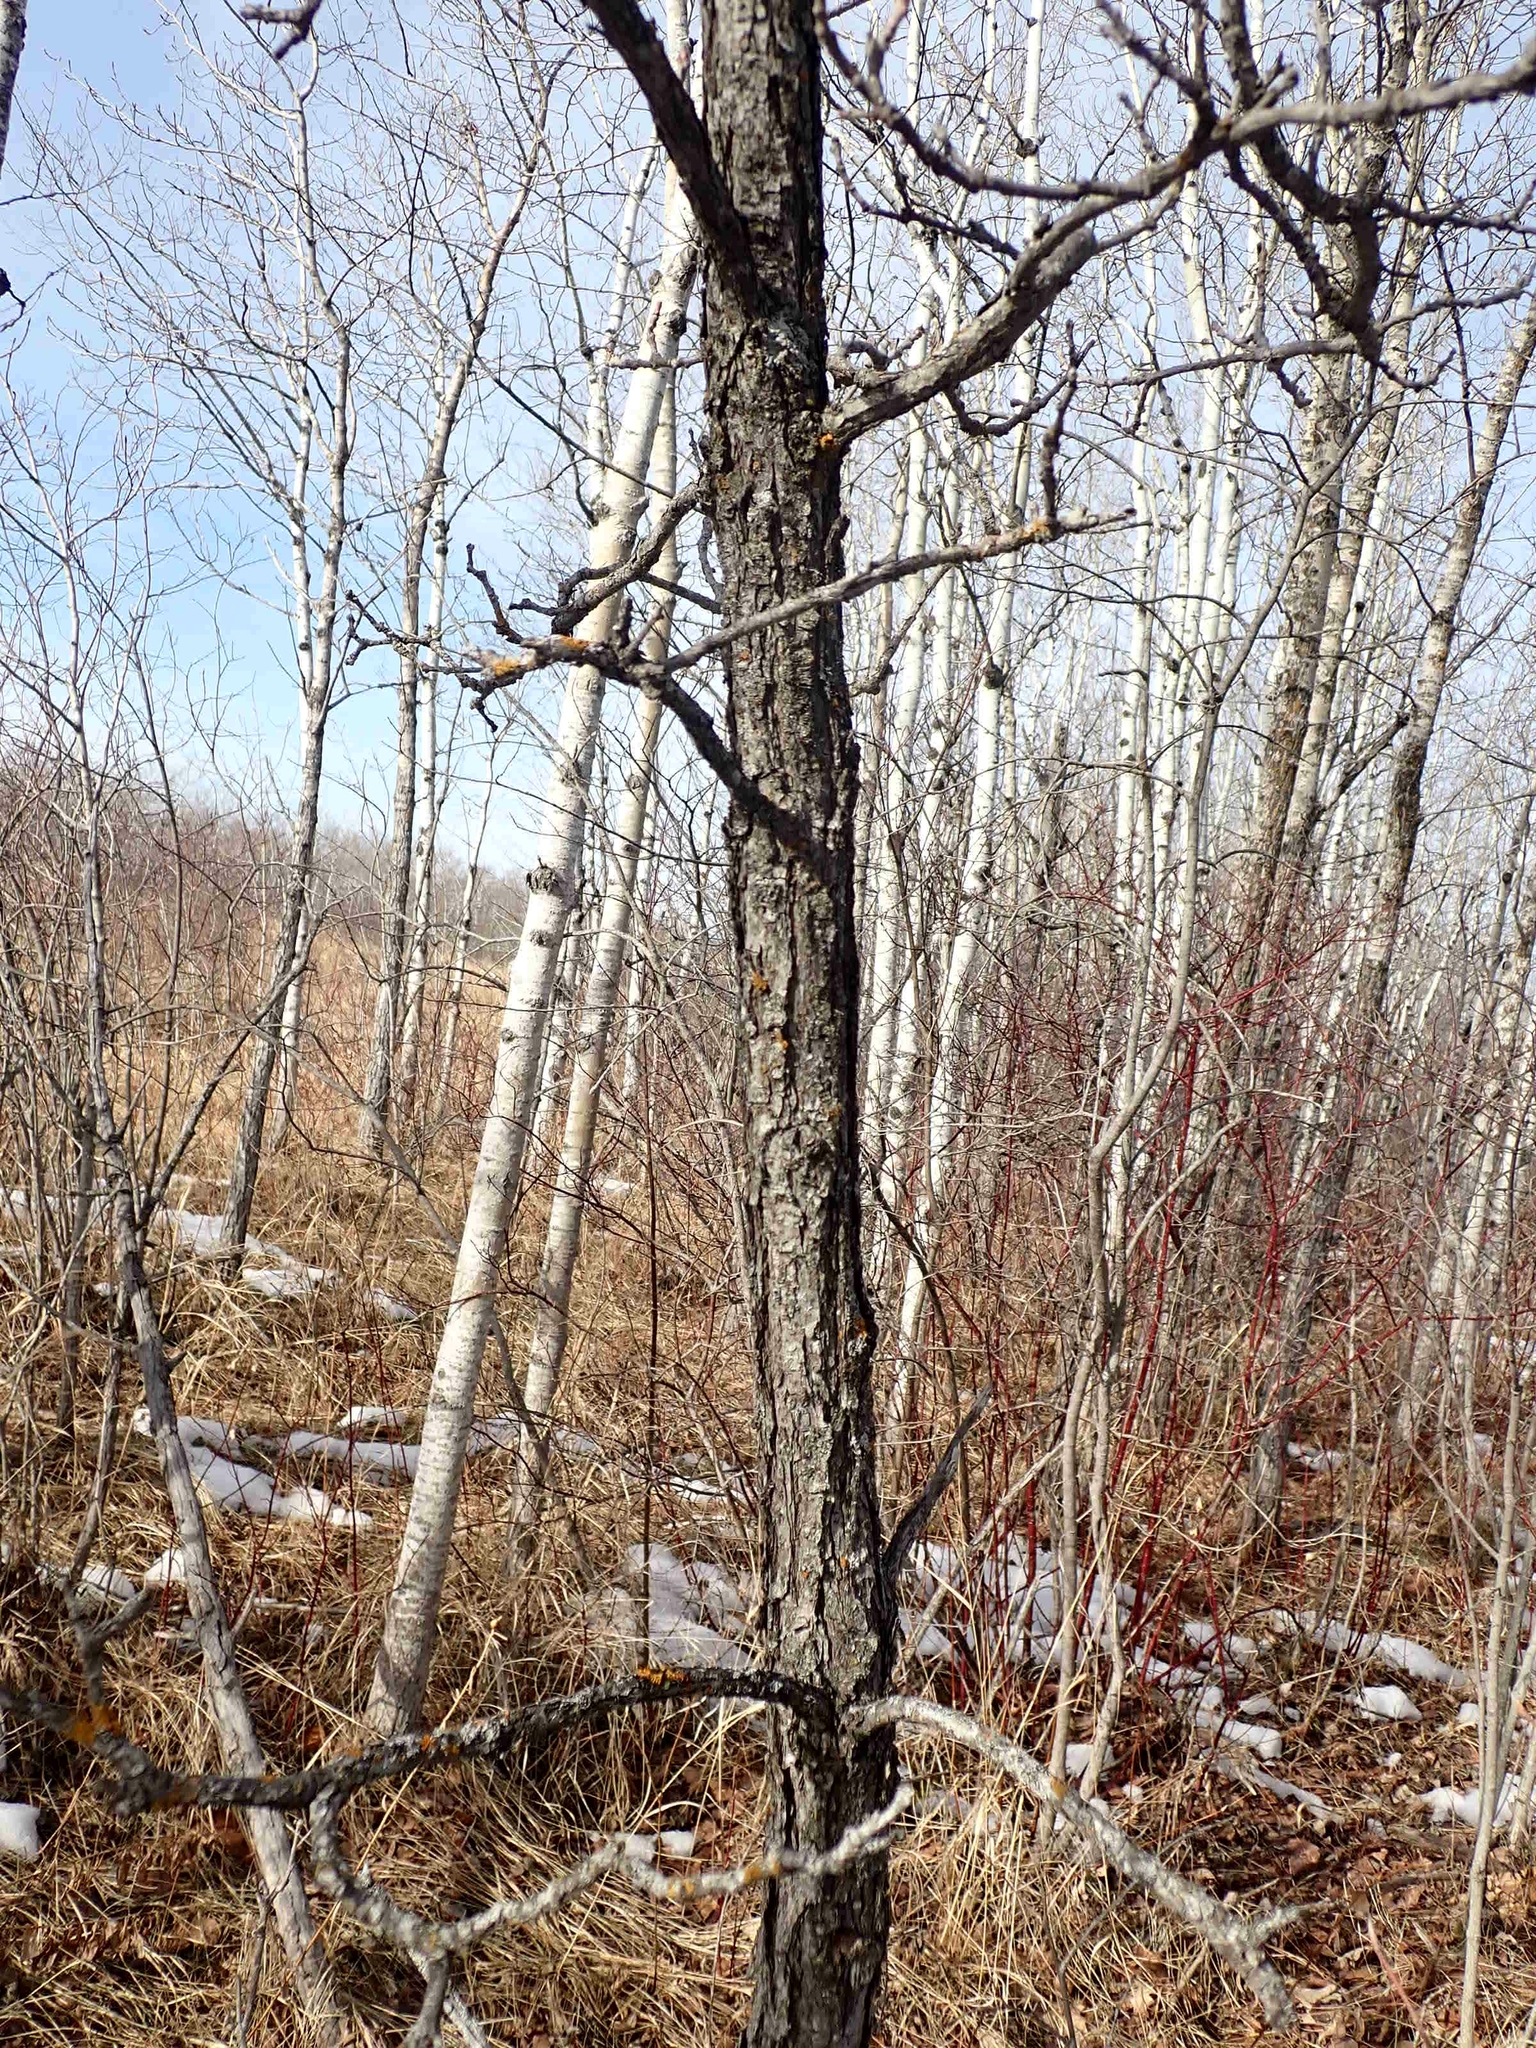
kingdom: Plantae
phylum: Tracheophyta
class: Magnoliopsida
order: Fagales
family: Fagaceae
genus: Quercus
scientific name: Quercus macrocarpa
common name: Bur oak
